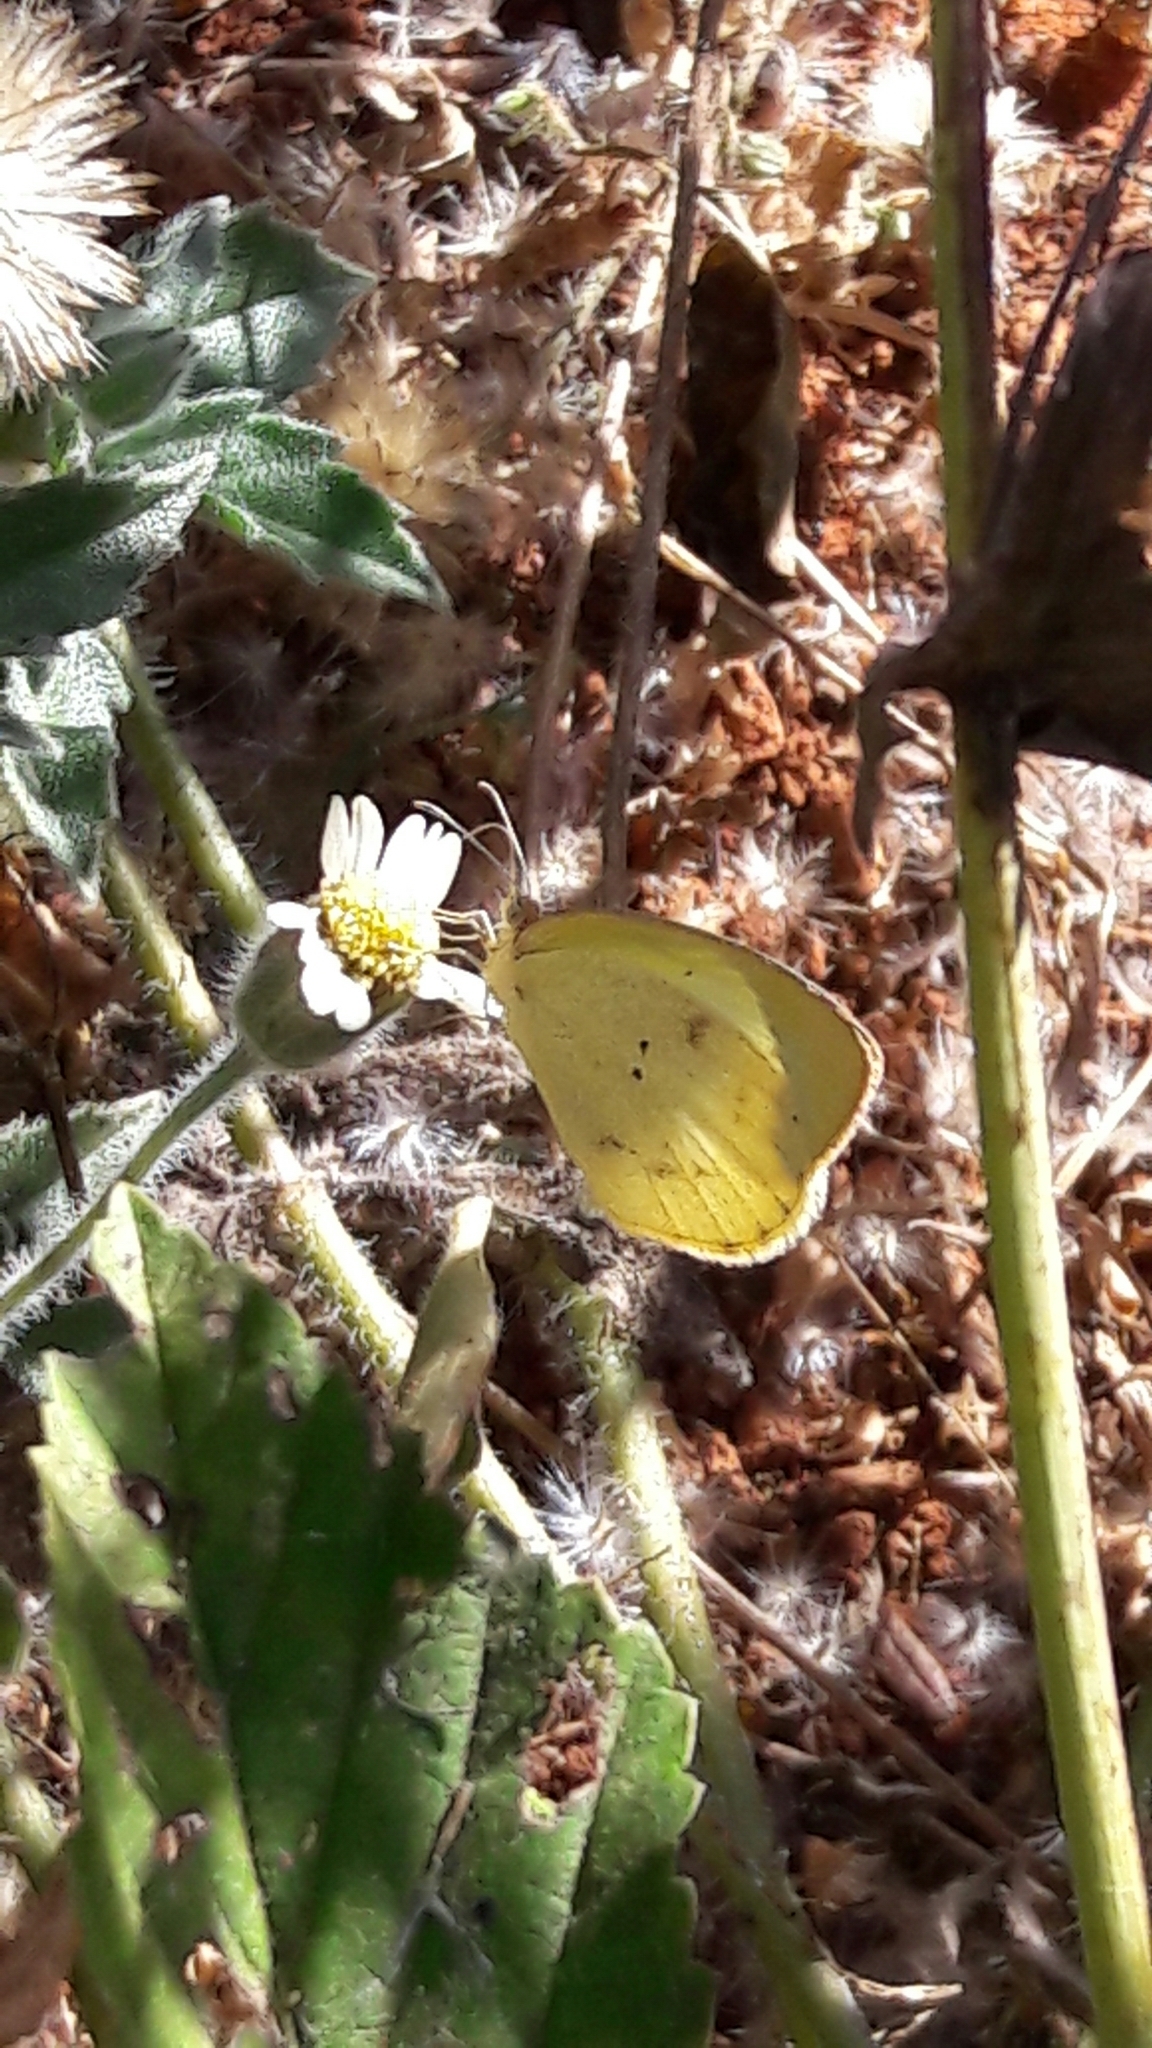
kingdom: Animalia
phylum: Arthropoda
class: Insecta
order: Lepidoptera
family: Pieridae
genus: Abaeis
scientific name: Abaeis albula
